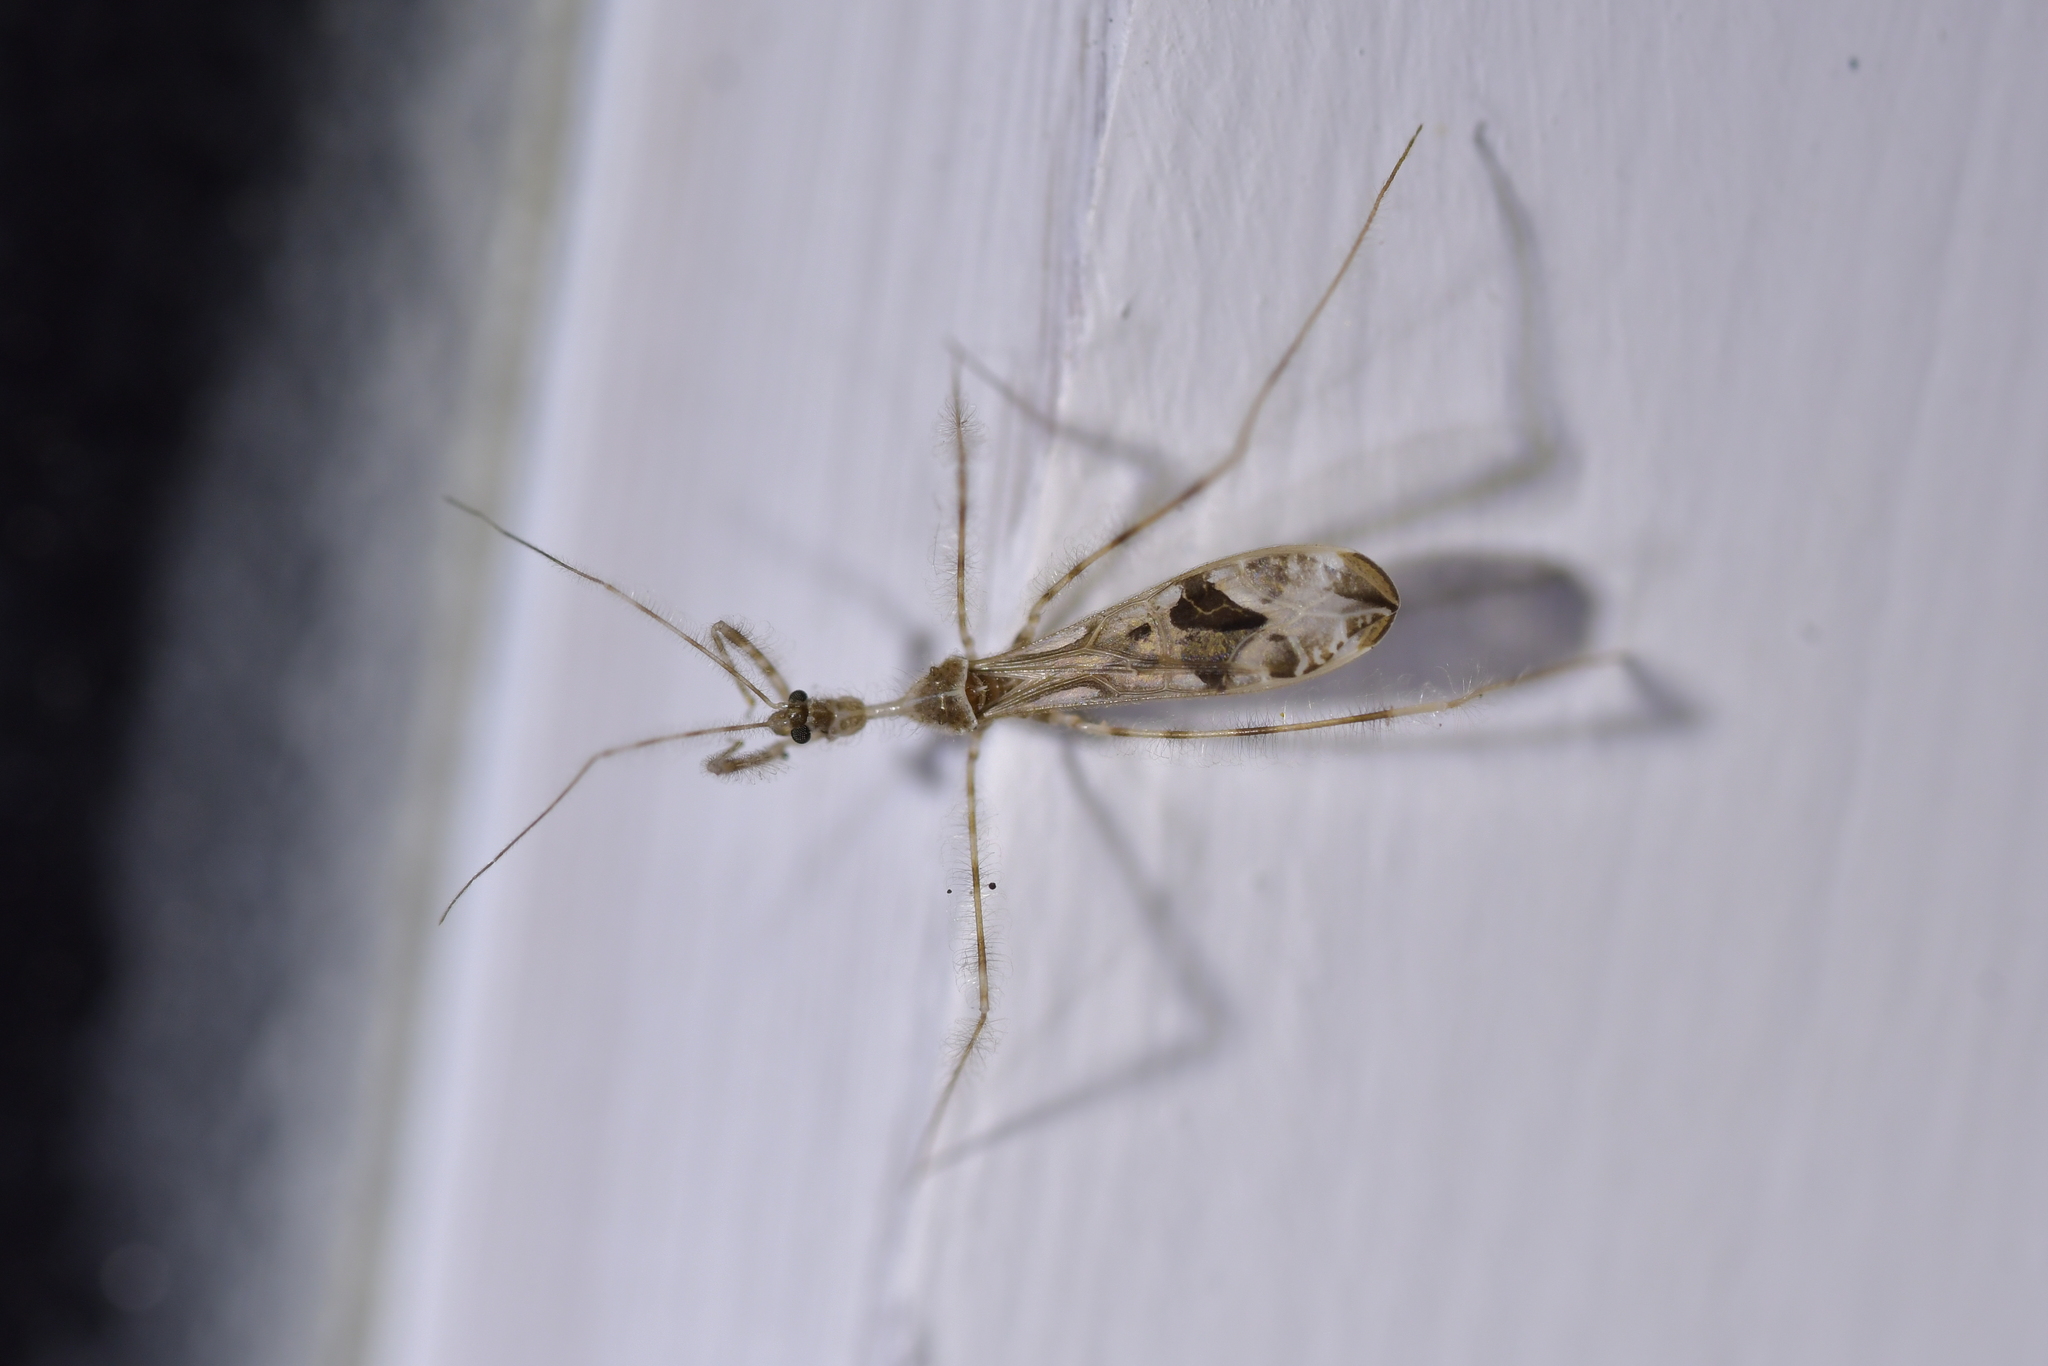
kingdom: Animalia
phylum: Arthropoda
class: Insecta
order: Hemiptera
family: Reduviidae
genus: Stenolemus
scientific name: Stenolemus fraterculus
